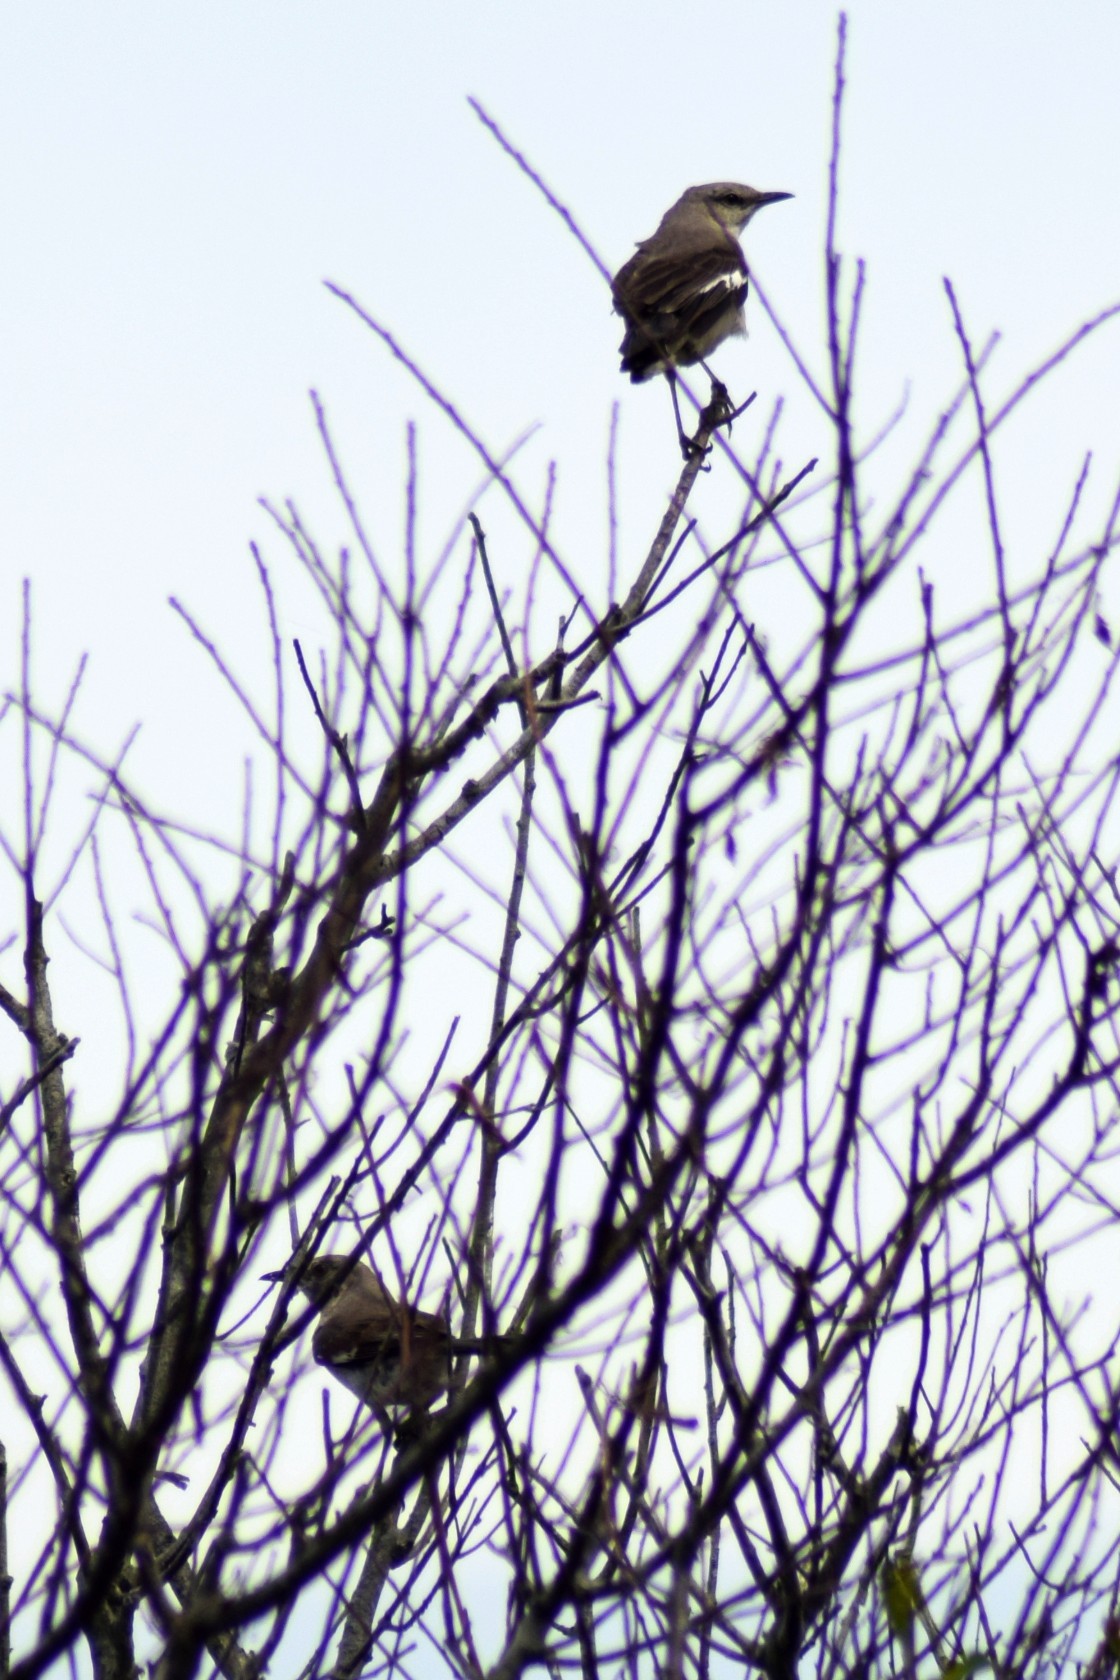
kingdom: Animalia
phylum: Chordata
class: Aves
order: Passeriformes
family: Mimidae
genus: Mimus
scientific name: Mimus polyglottos
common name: Northern mockingbird
